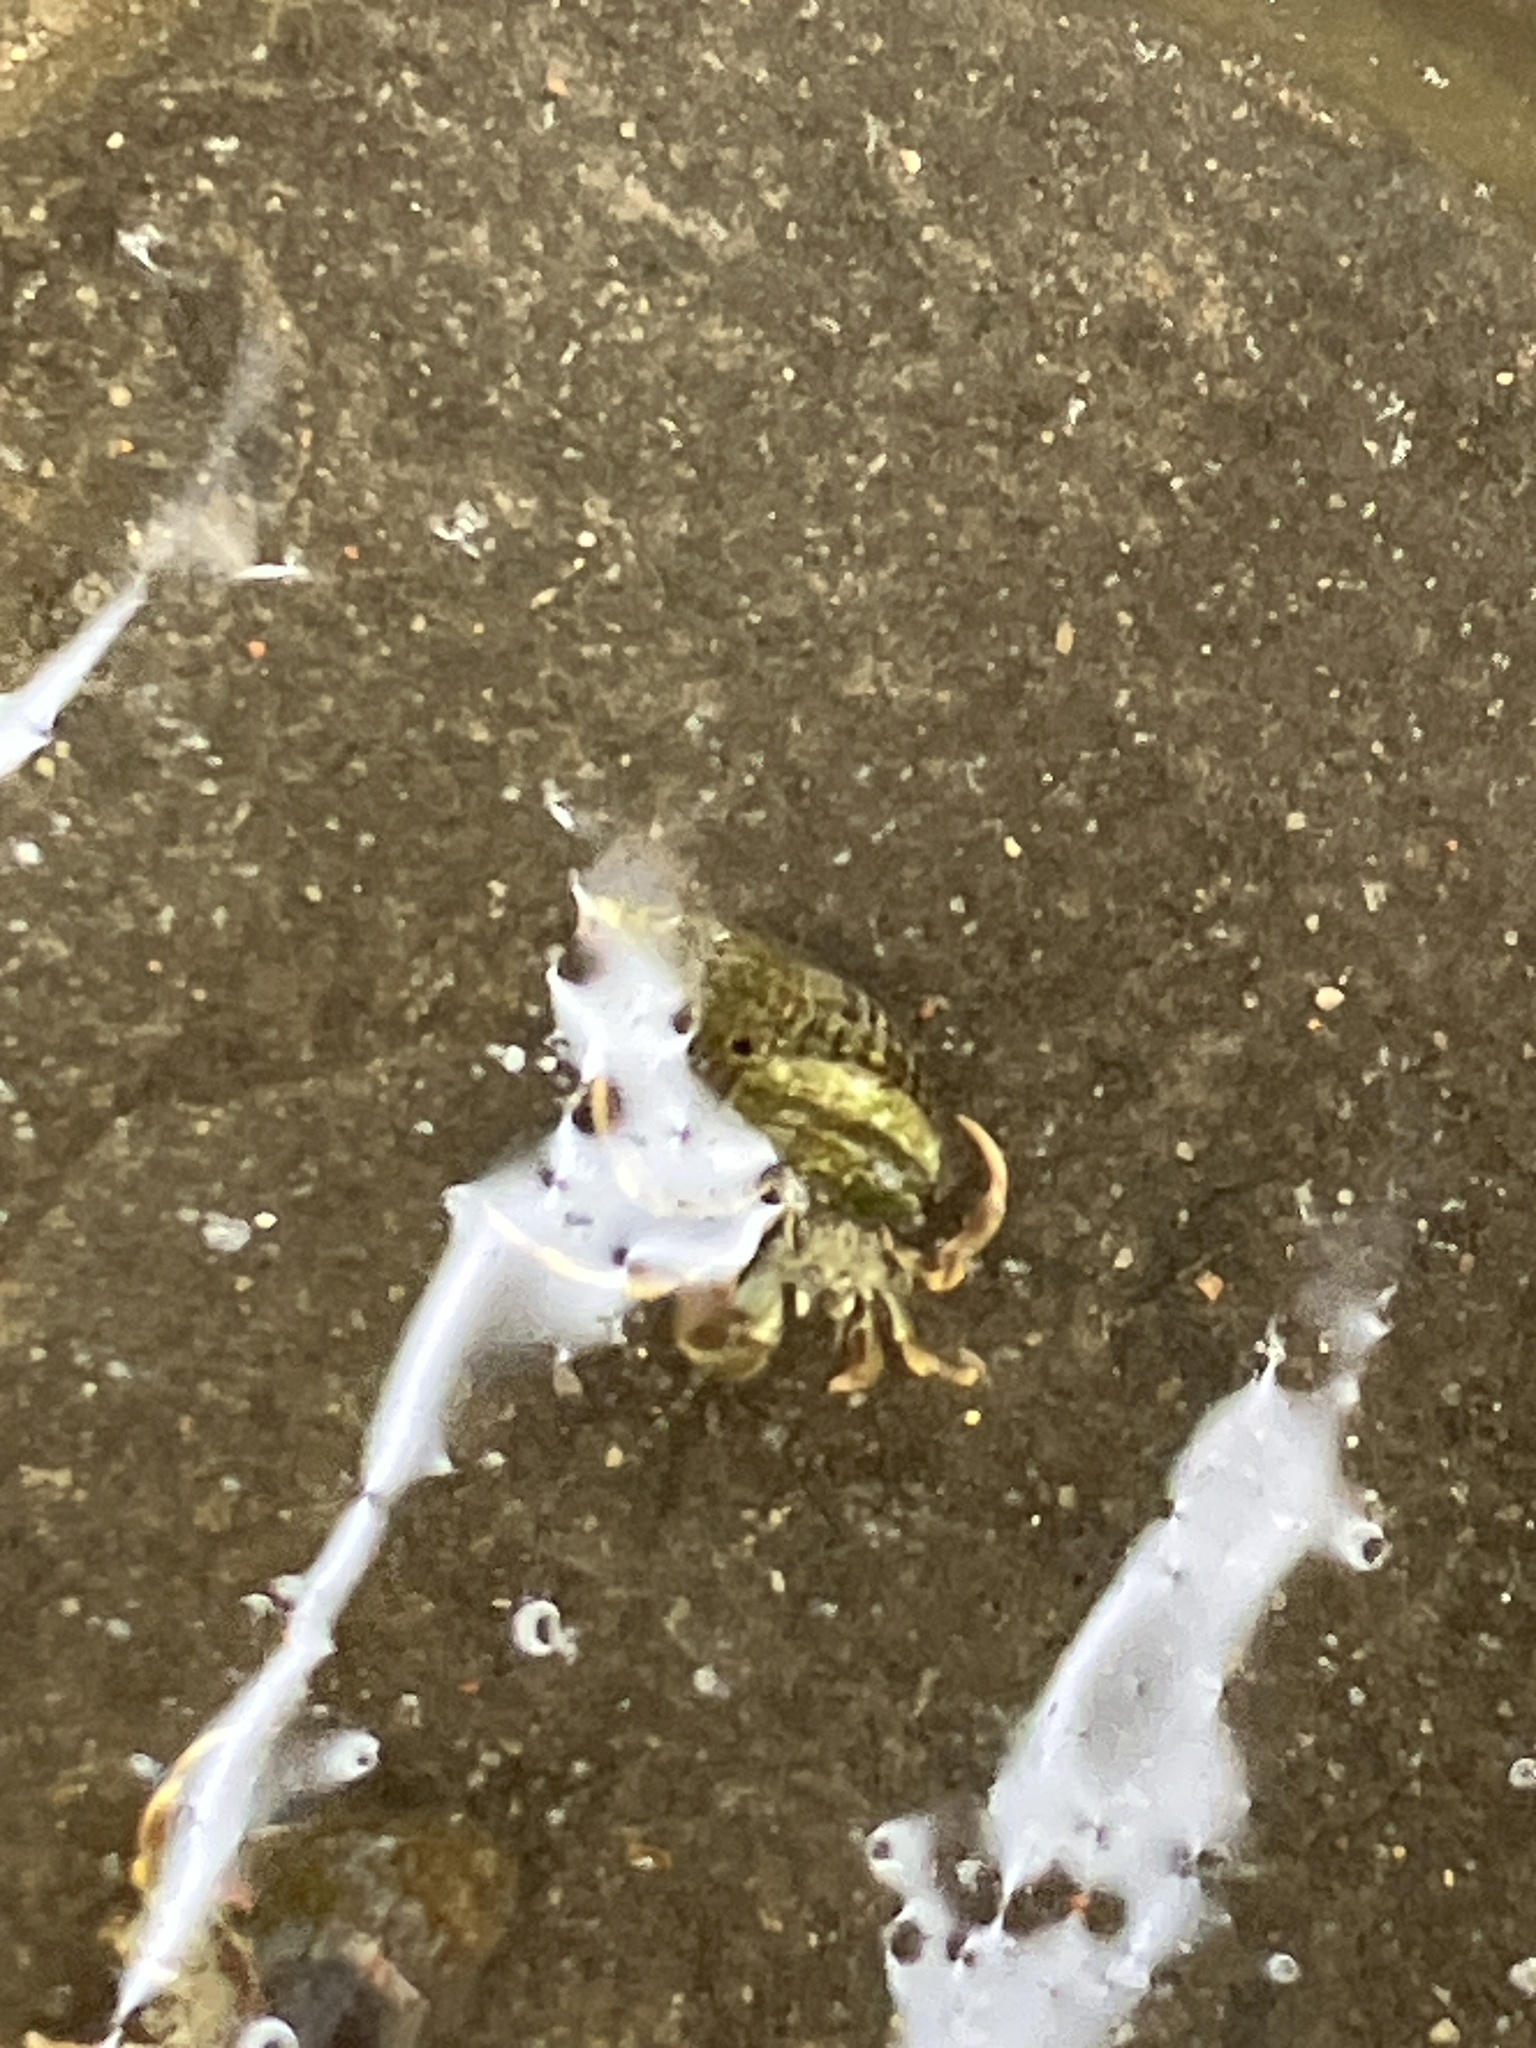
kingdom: Animalia
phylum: Arthropoda
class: Malacostraca
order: Decapoda
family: Paguridae
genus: Pagurus
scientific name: Pagurus longicarpus
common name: Long-armed hermit crab
